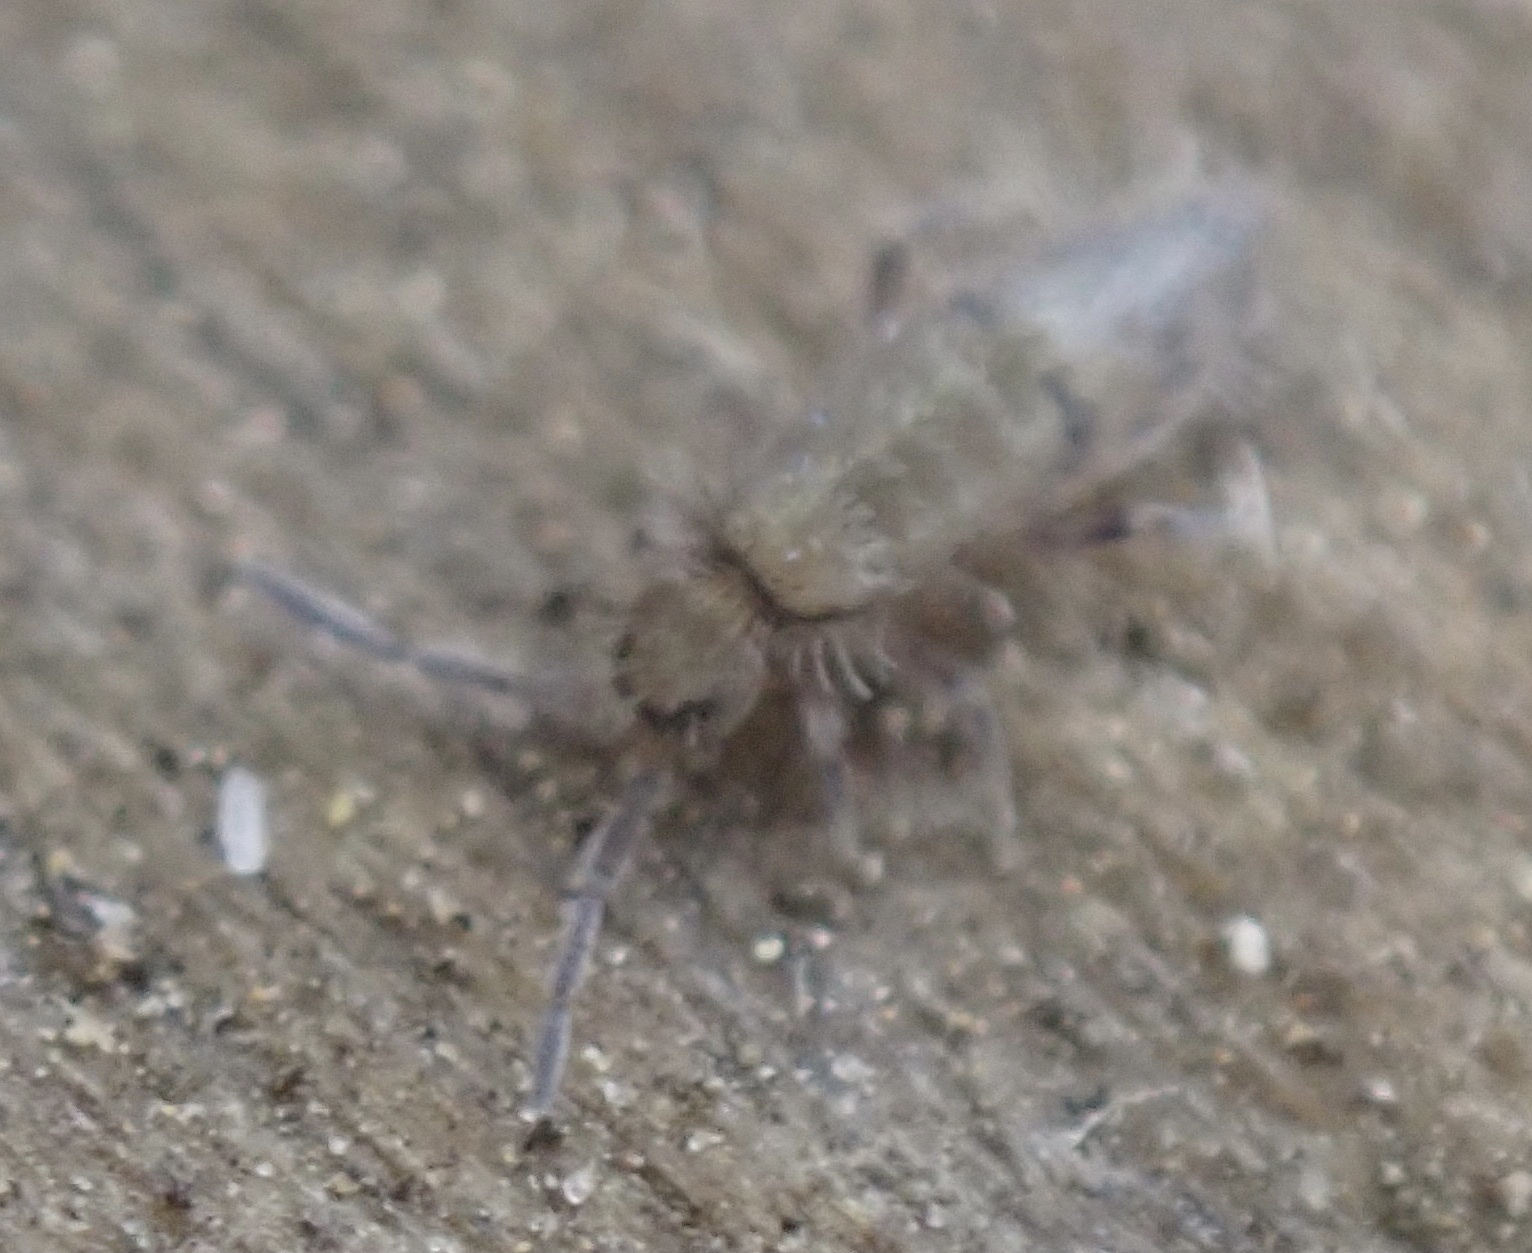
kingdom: Animalia
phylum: Arthropoda
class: Collembola
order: Entomobryomorpha
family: Entomobryidae
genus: Willowsia
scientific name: Willowsia nigromaculata
